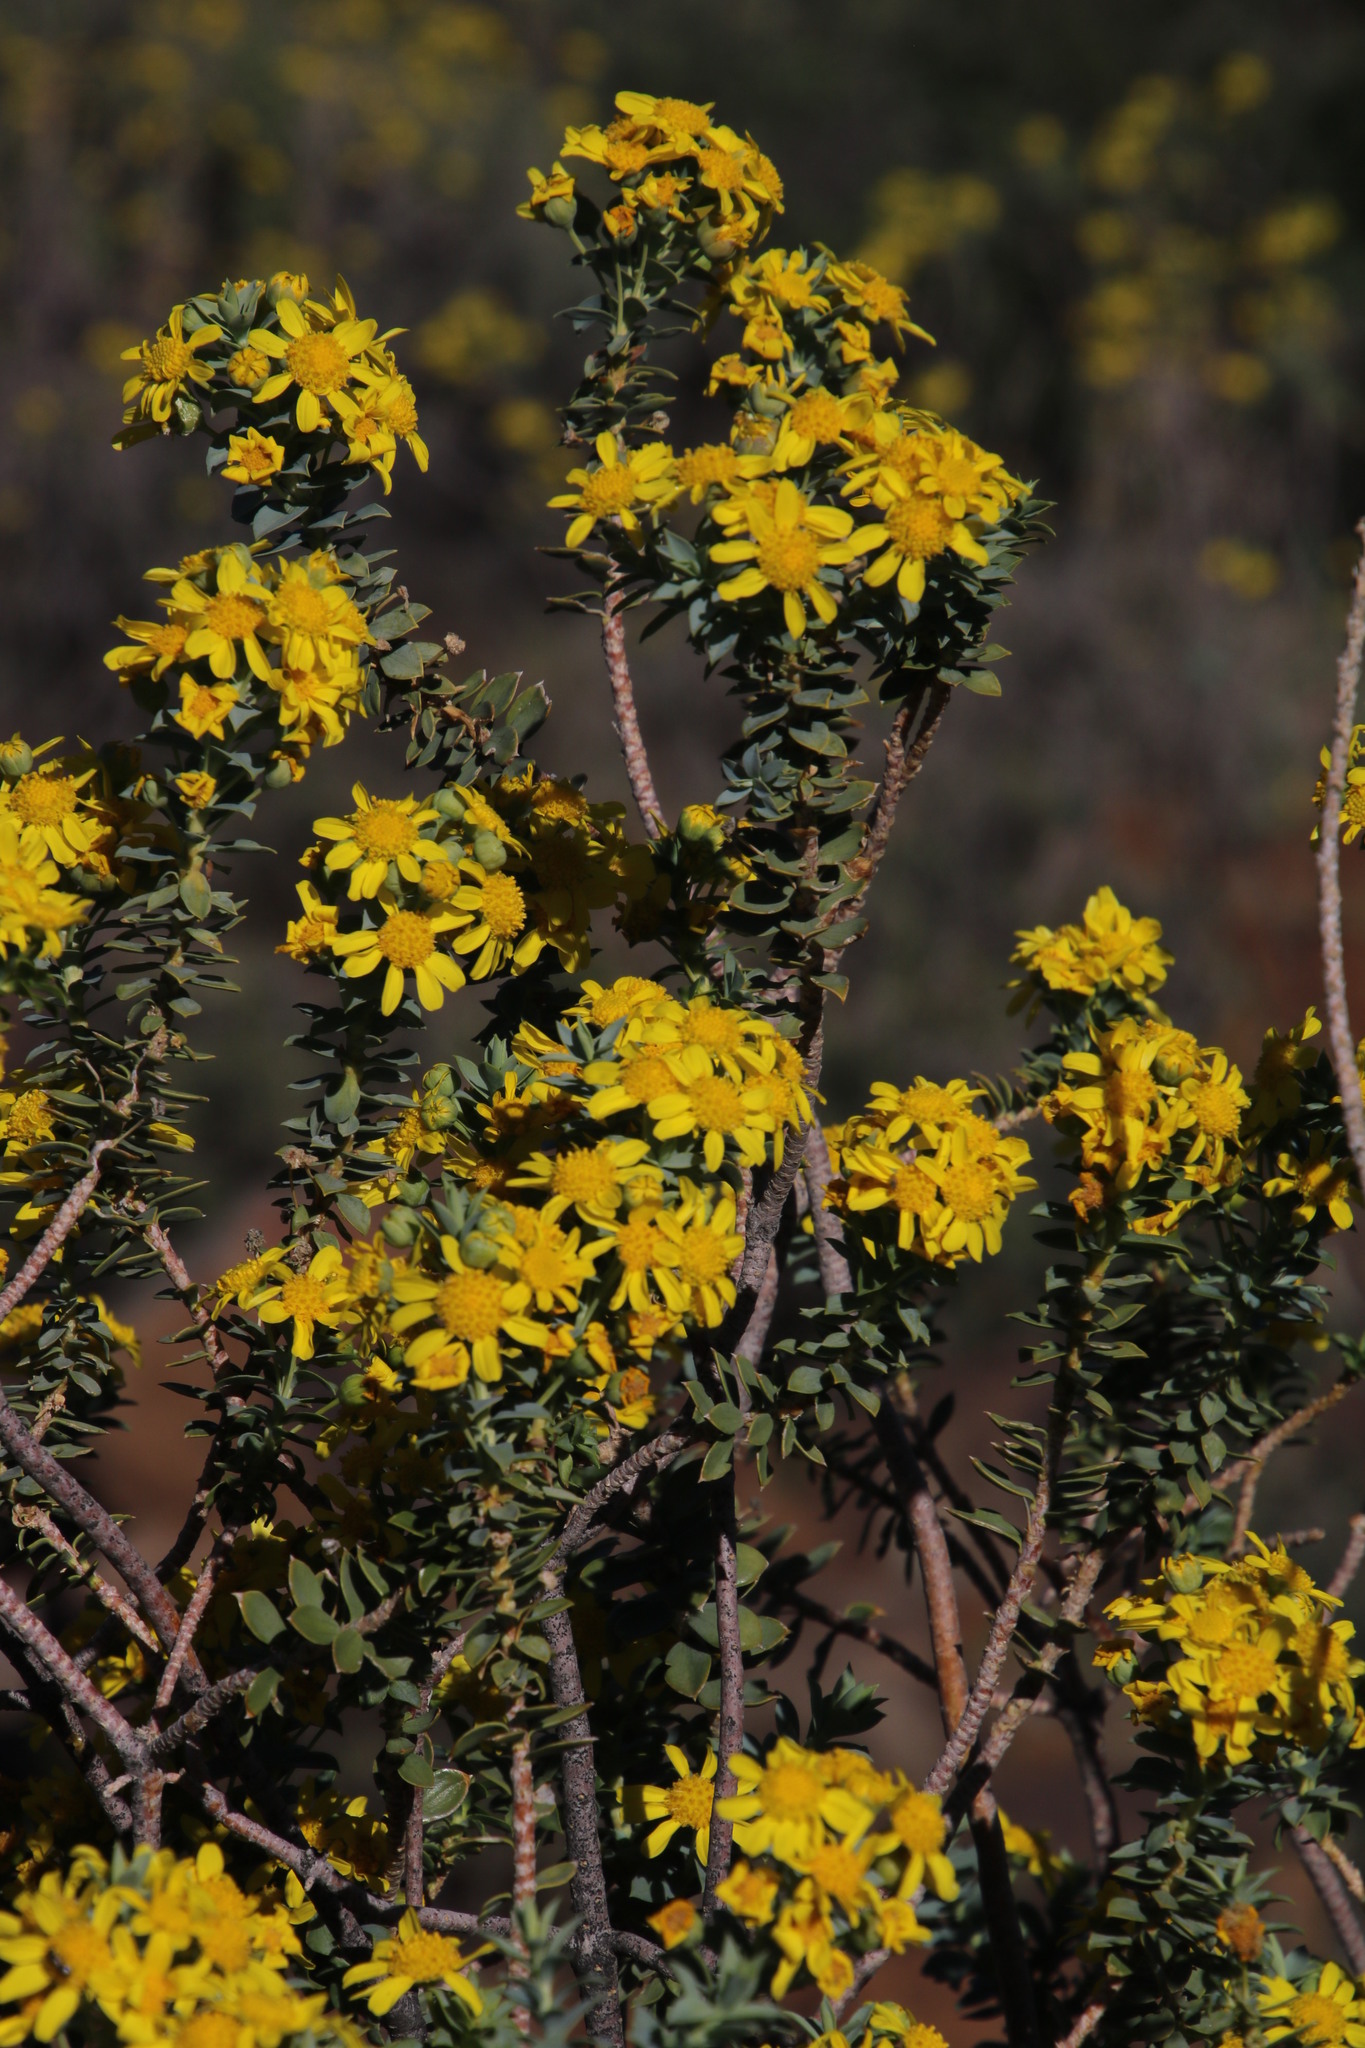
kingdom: Plantae
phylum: Tracheophyta
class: Magnoliopsida
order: Asterales
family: Asteraceae
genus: Euryops
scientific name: Euryops lateriflorus
